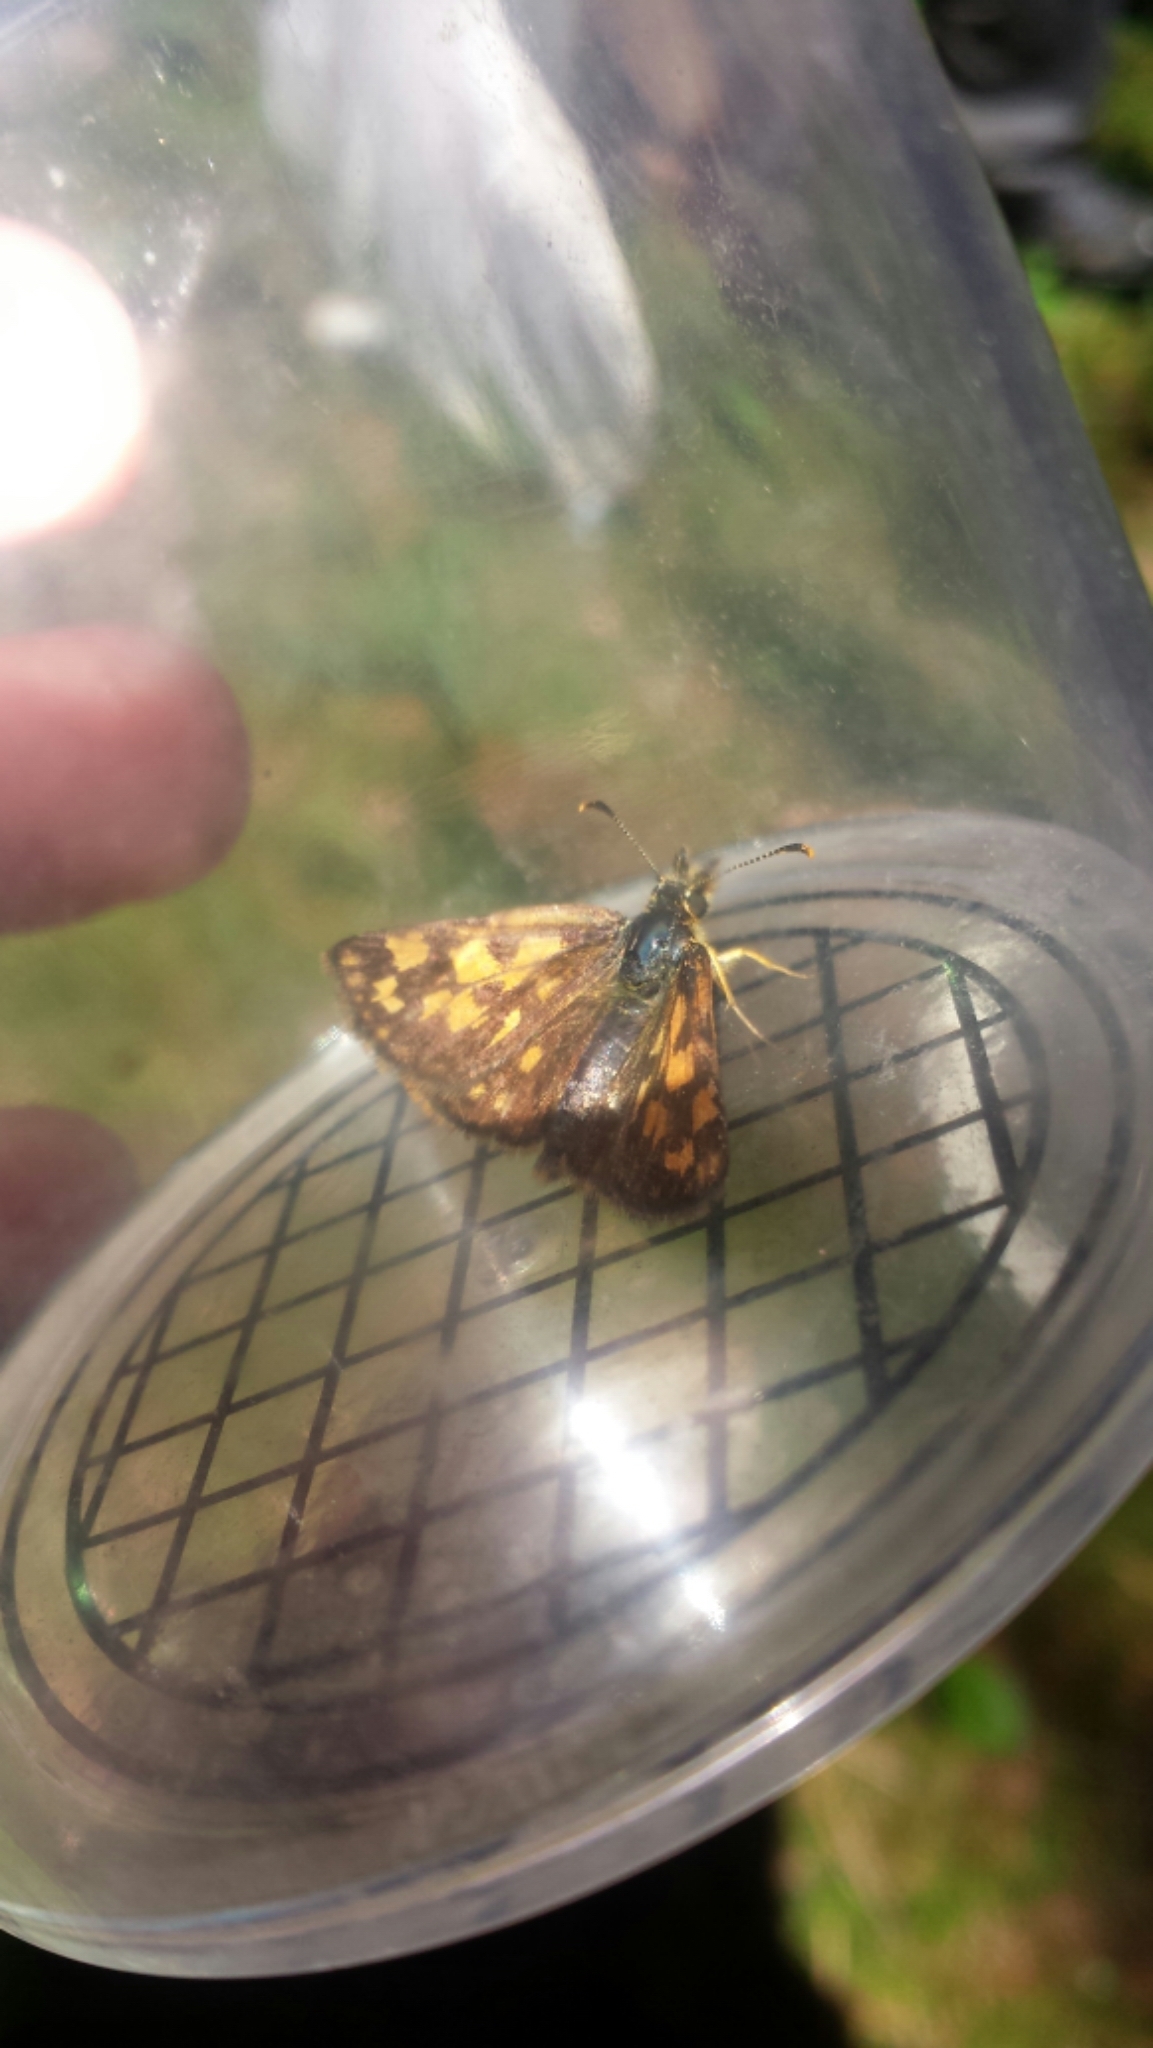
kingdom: Animalia
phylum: Arthropoda
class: Insecta
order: Lepidoptera
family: Hesperiidae
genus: Carterocephalus
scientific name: Carterocephalus mandan
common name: Arctic skipperling
